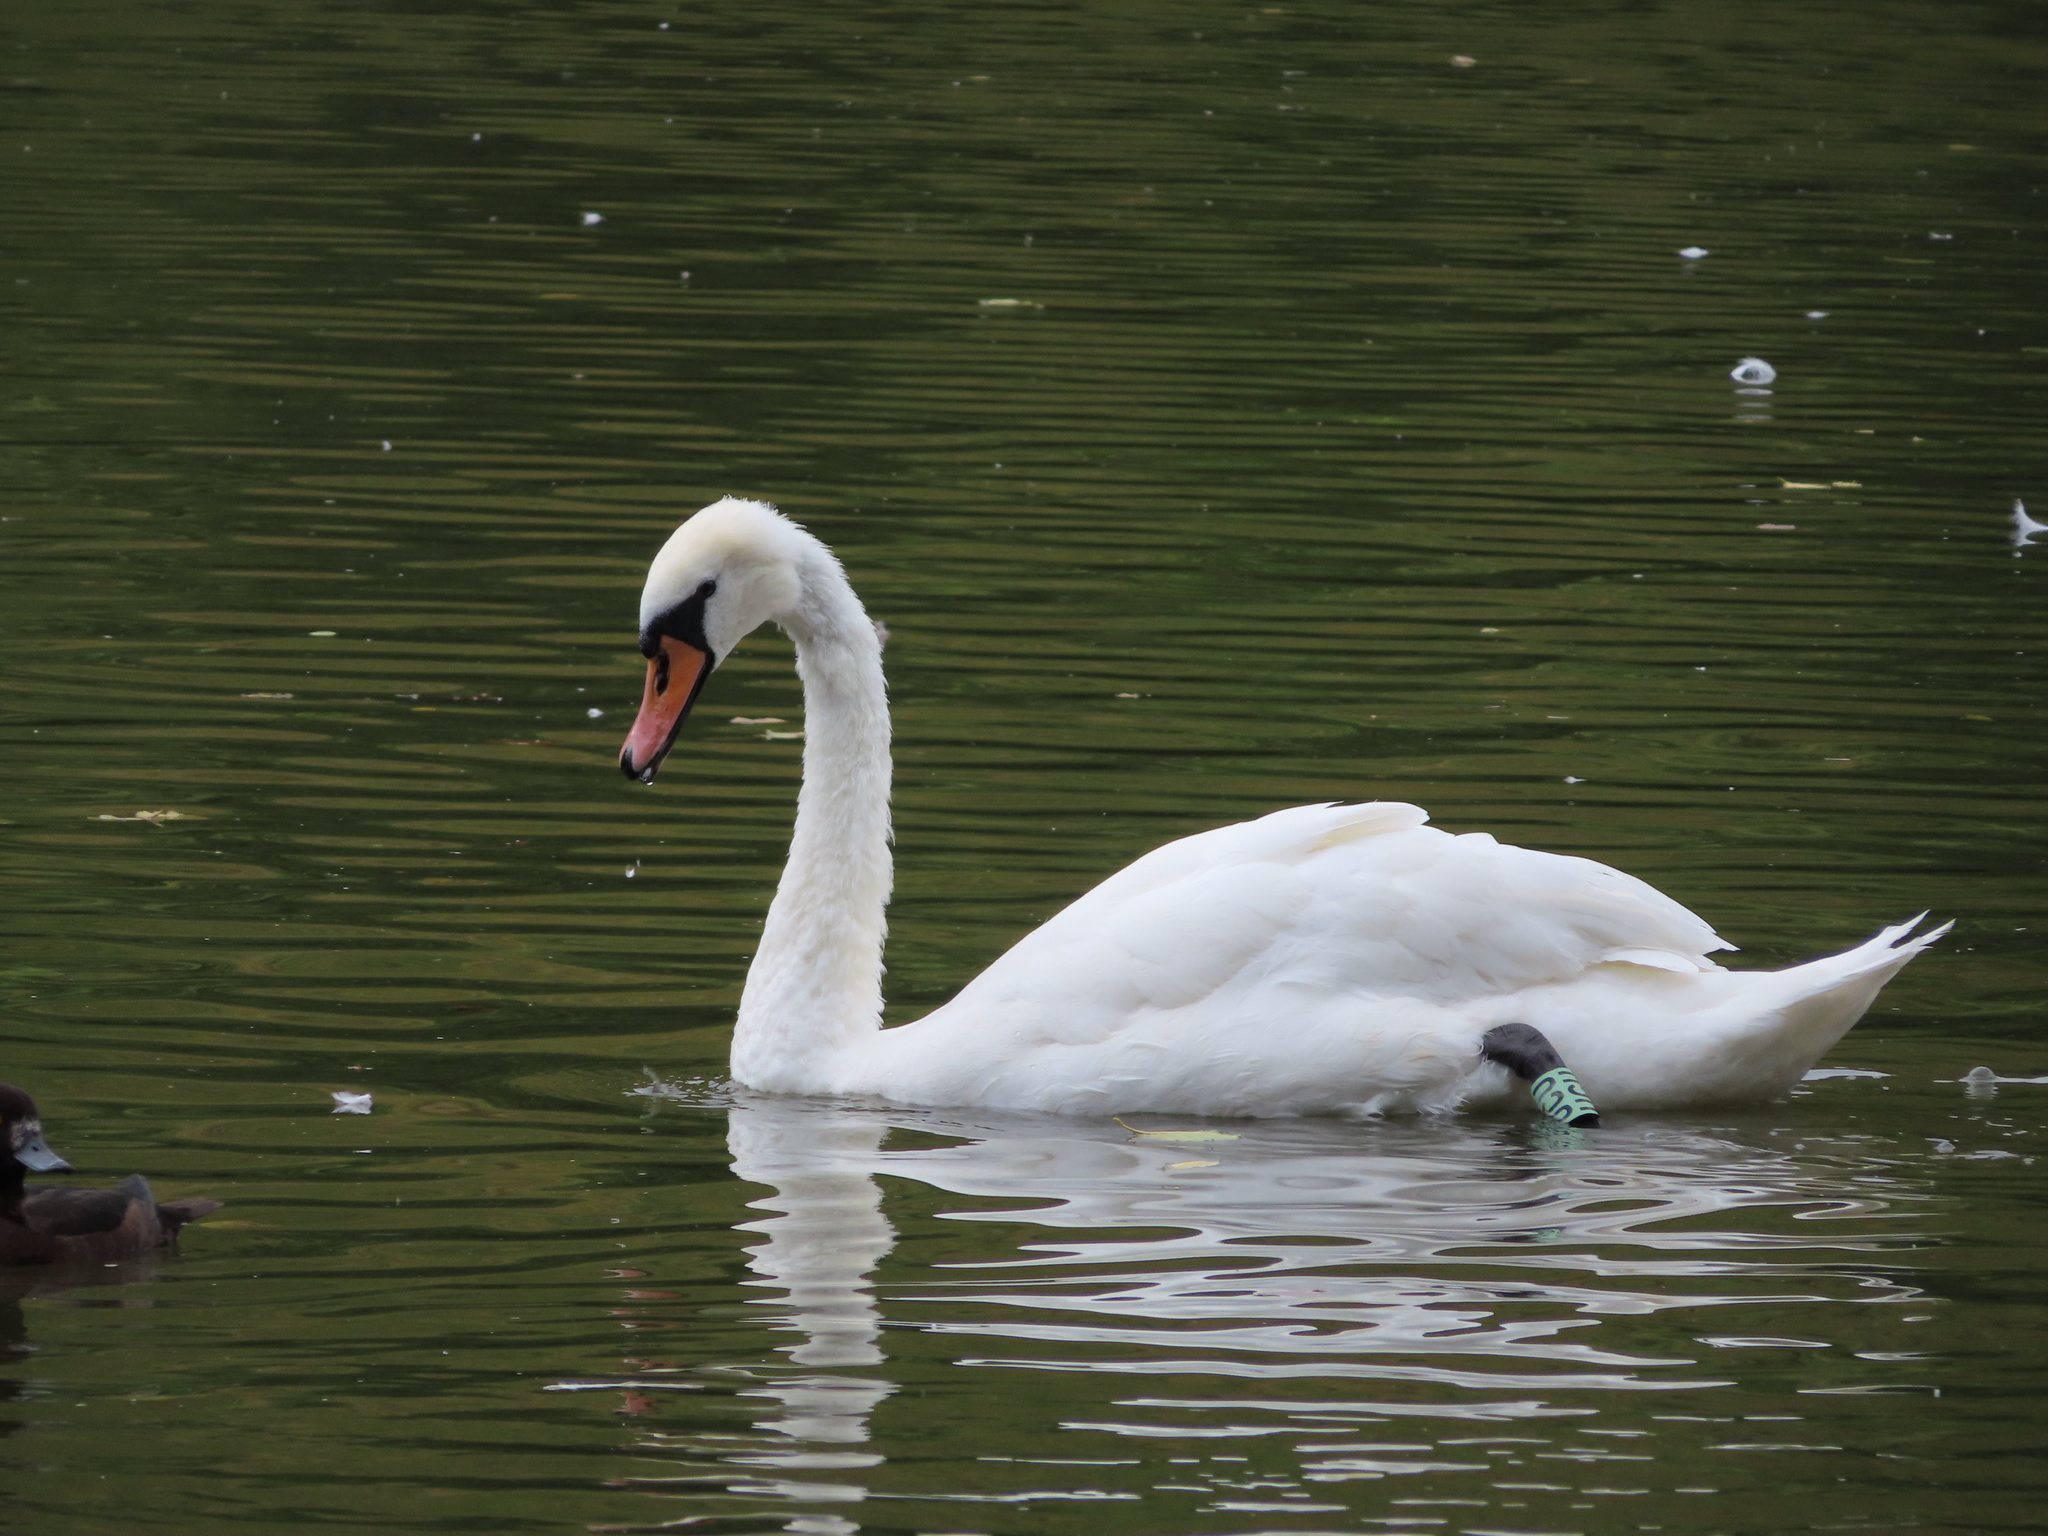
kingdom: Animalia
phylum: Chordata
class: Aves
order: Anseriformes
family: Anatidae
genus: Cygnus
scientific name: Cygnus olor
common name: Mute swan
